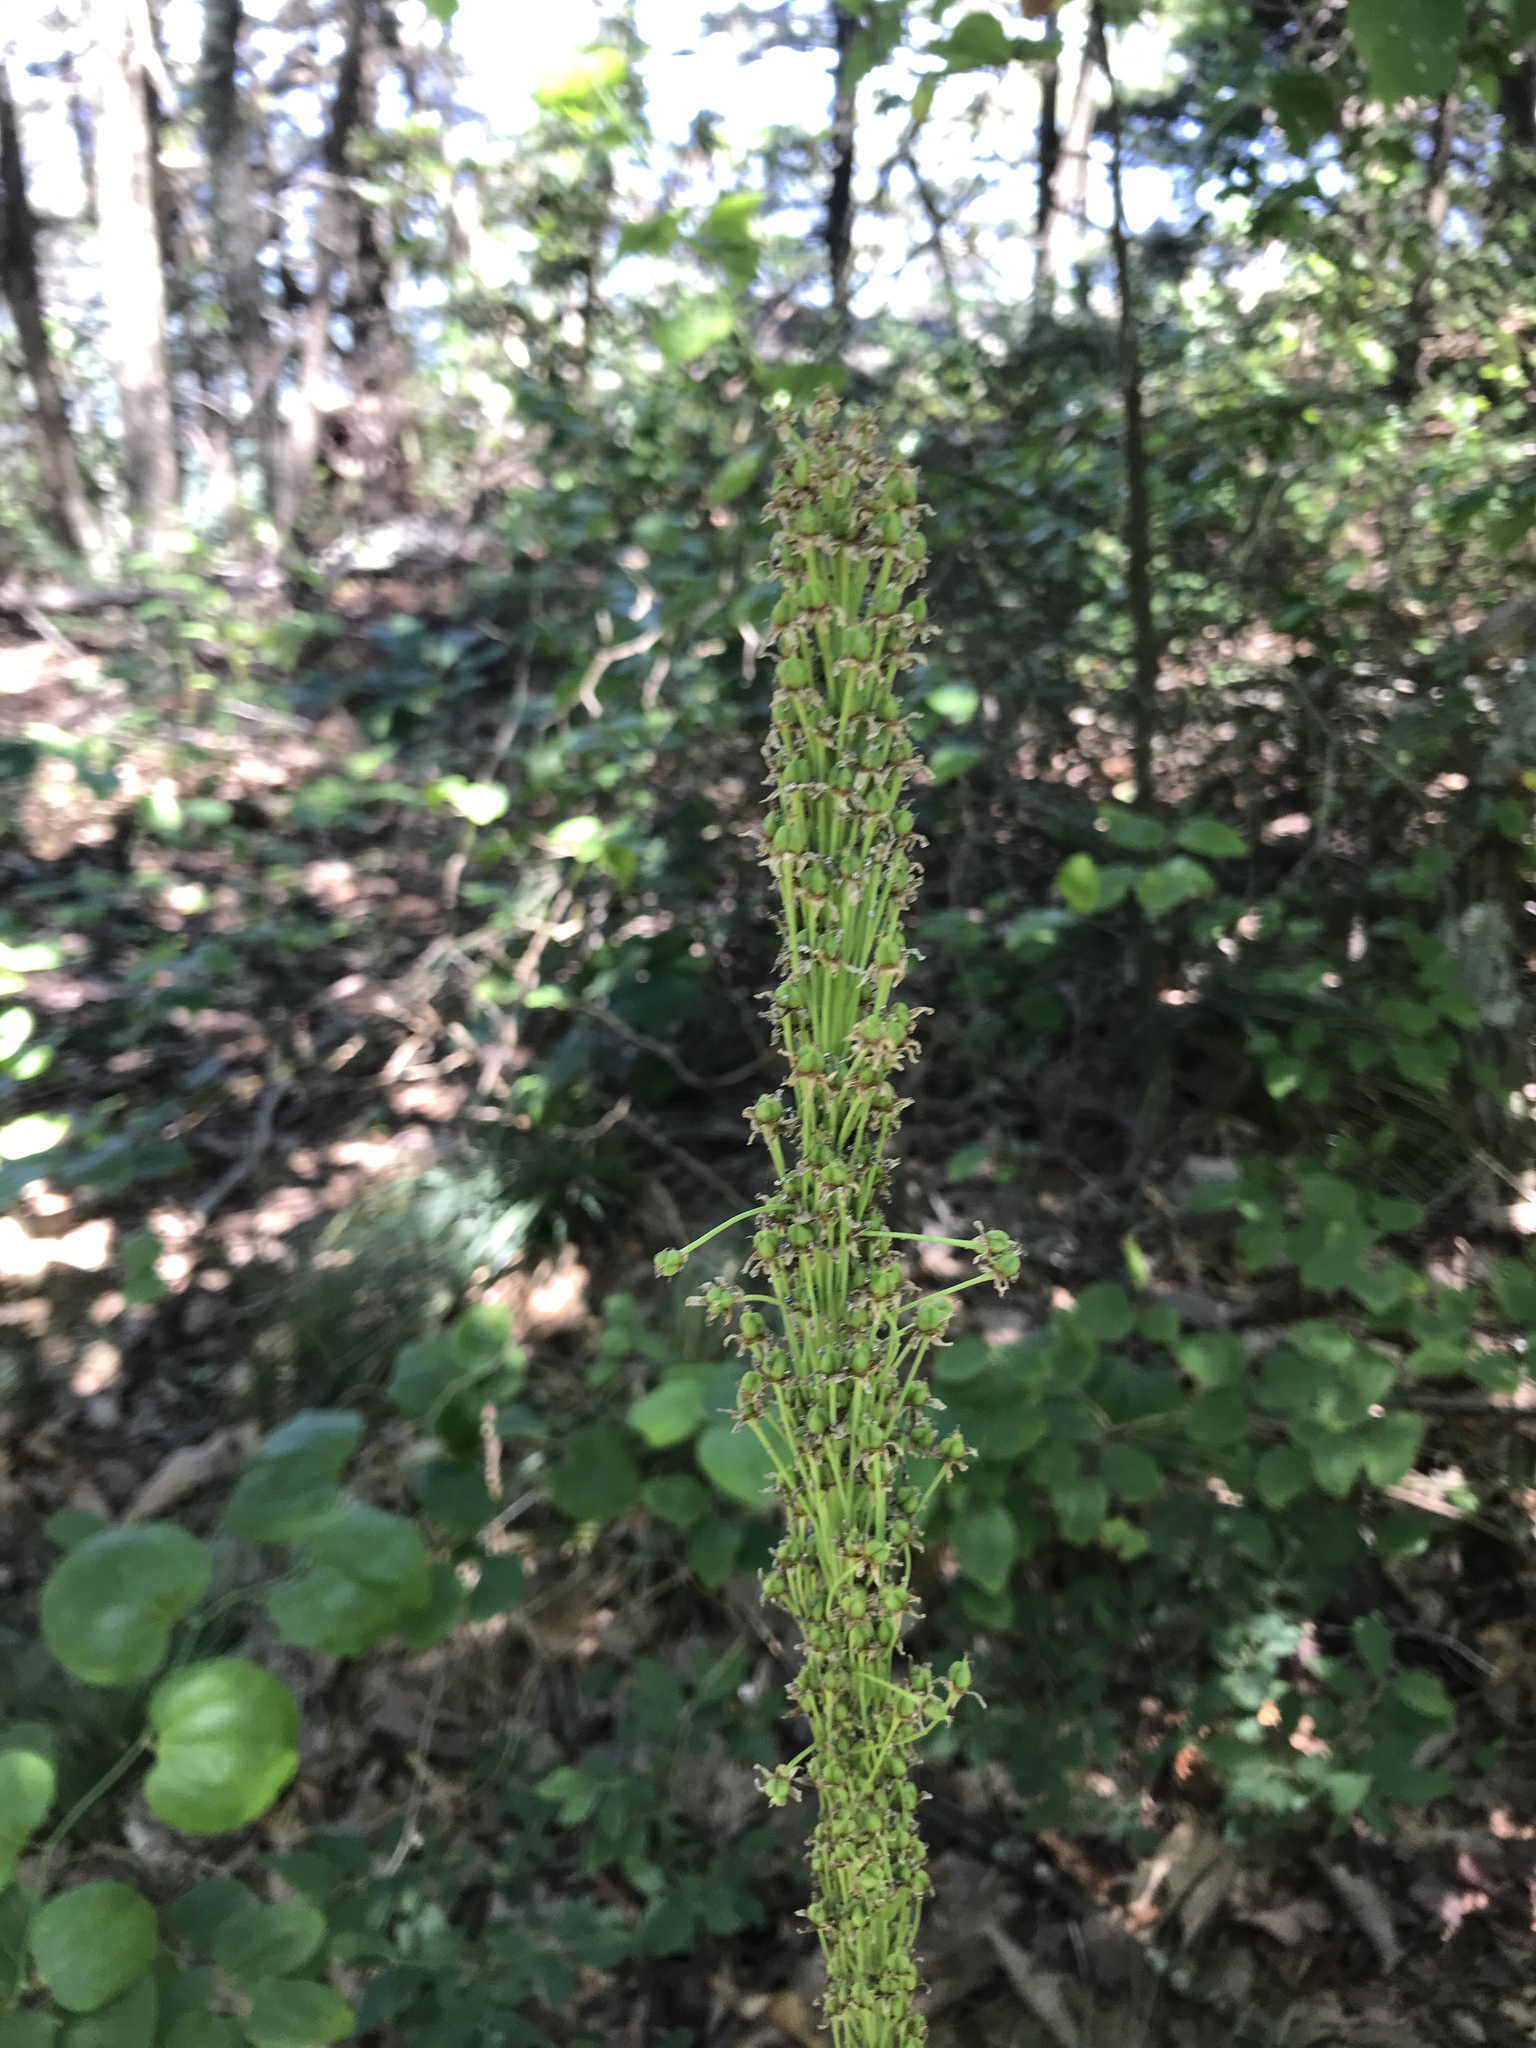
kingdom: Plantae
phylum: Tracheophyta
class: Liliopsida
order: Liliales
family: Melanthiaceae
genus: Xerophyllum
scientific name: Xerophyllum asphodeloides
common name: Mountain-asphodel
